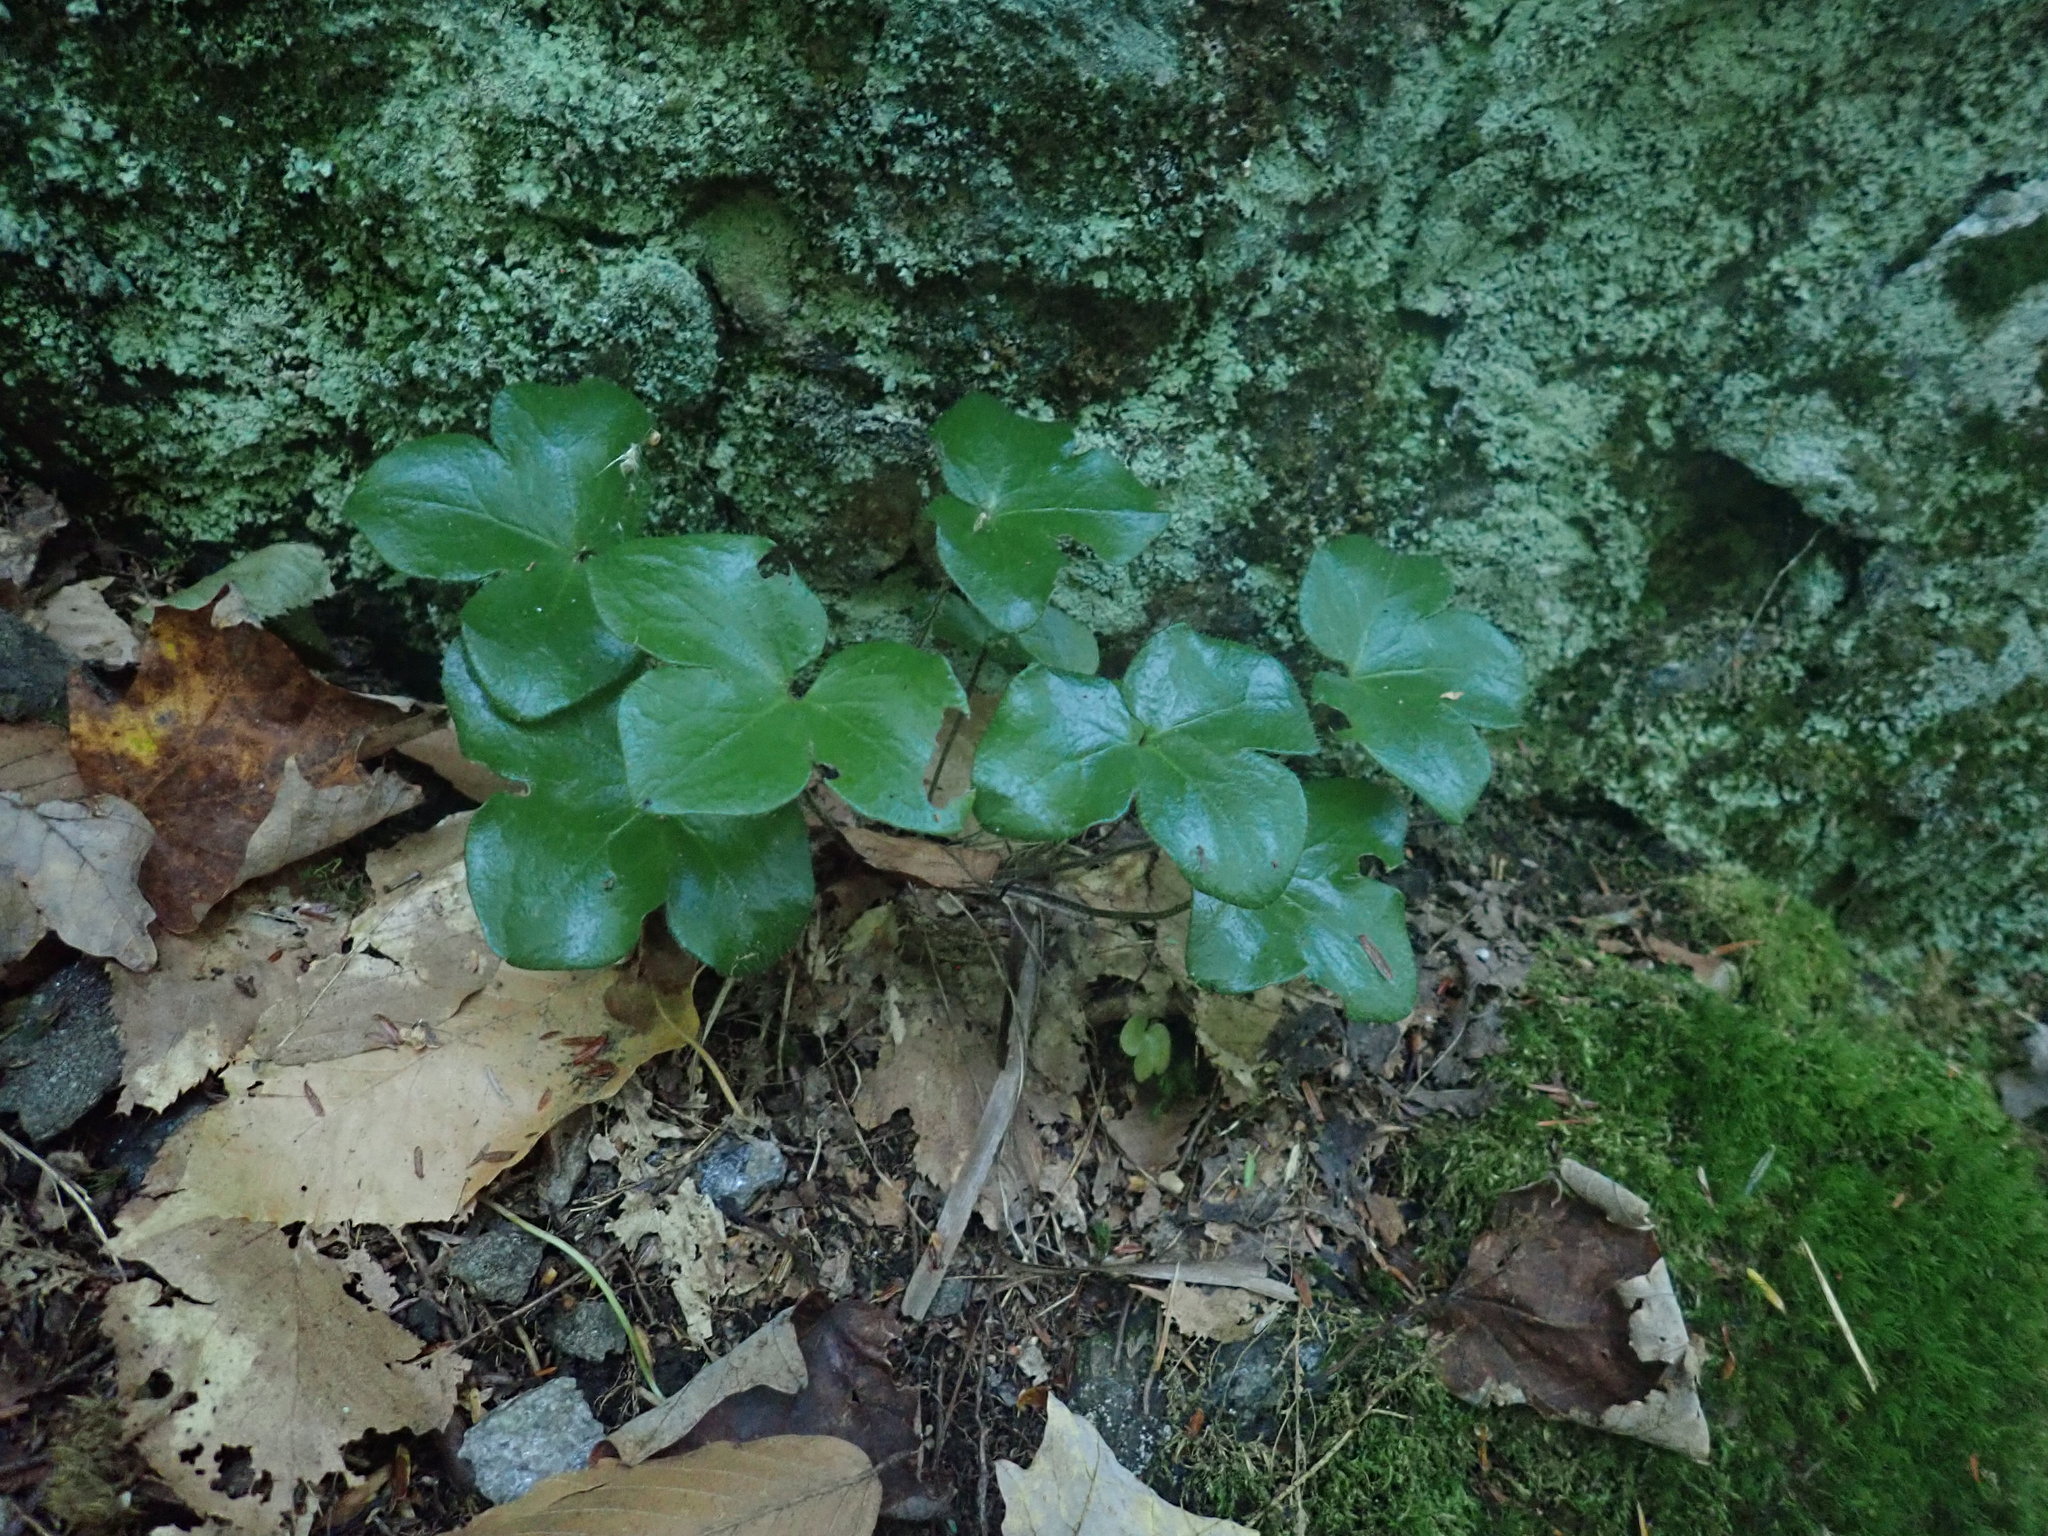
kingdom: Plantae
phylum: Tracheophyta
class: Magnoliopsida
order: Ranunculales
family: Ranunculaceae
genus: Hepatica
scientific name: Hepatica americana
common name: American hepatica
